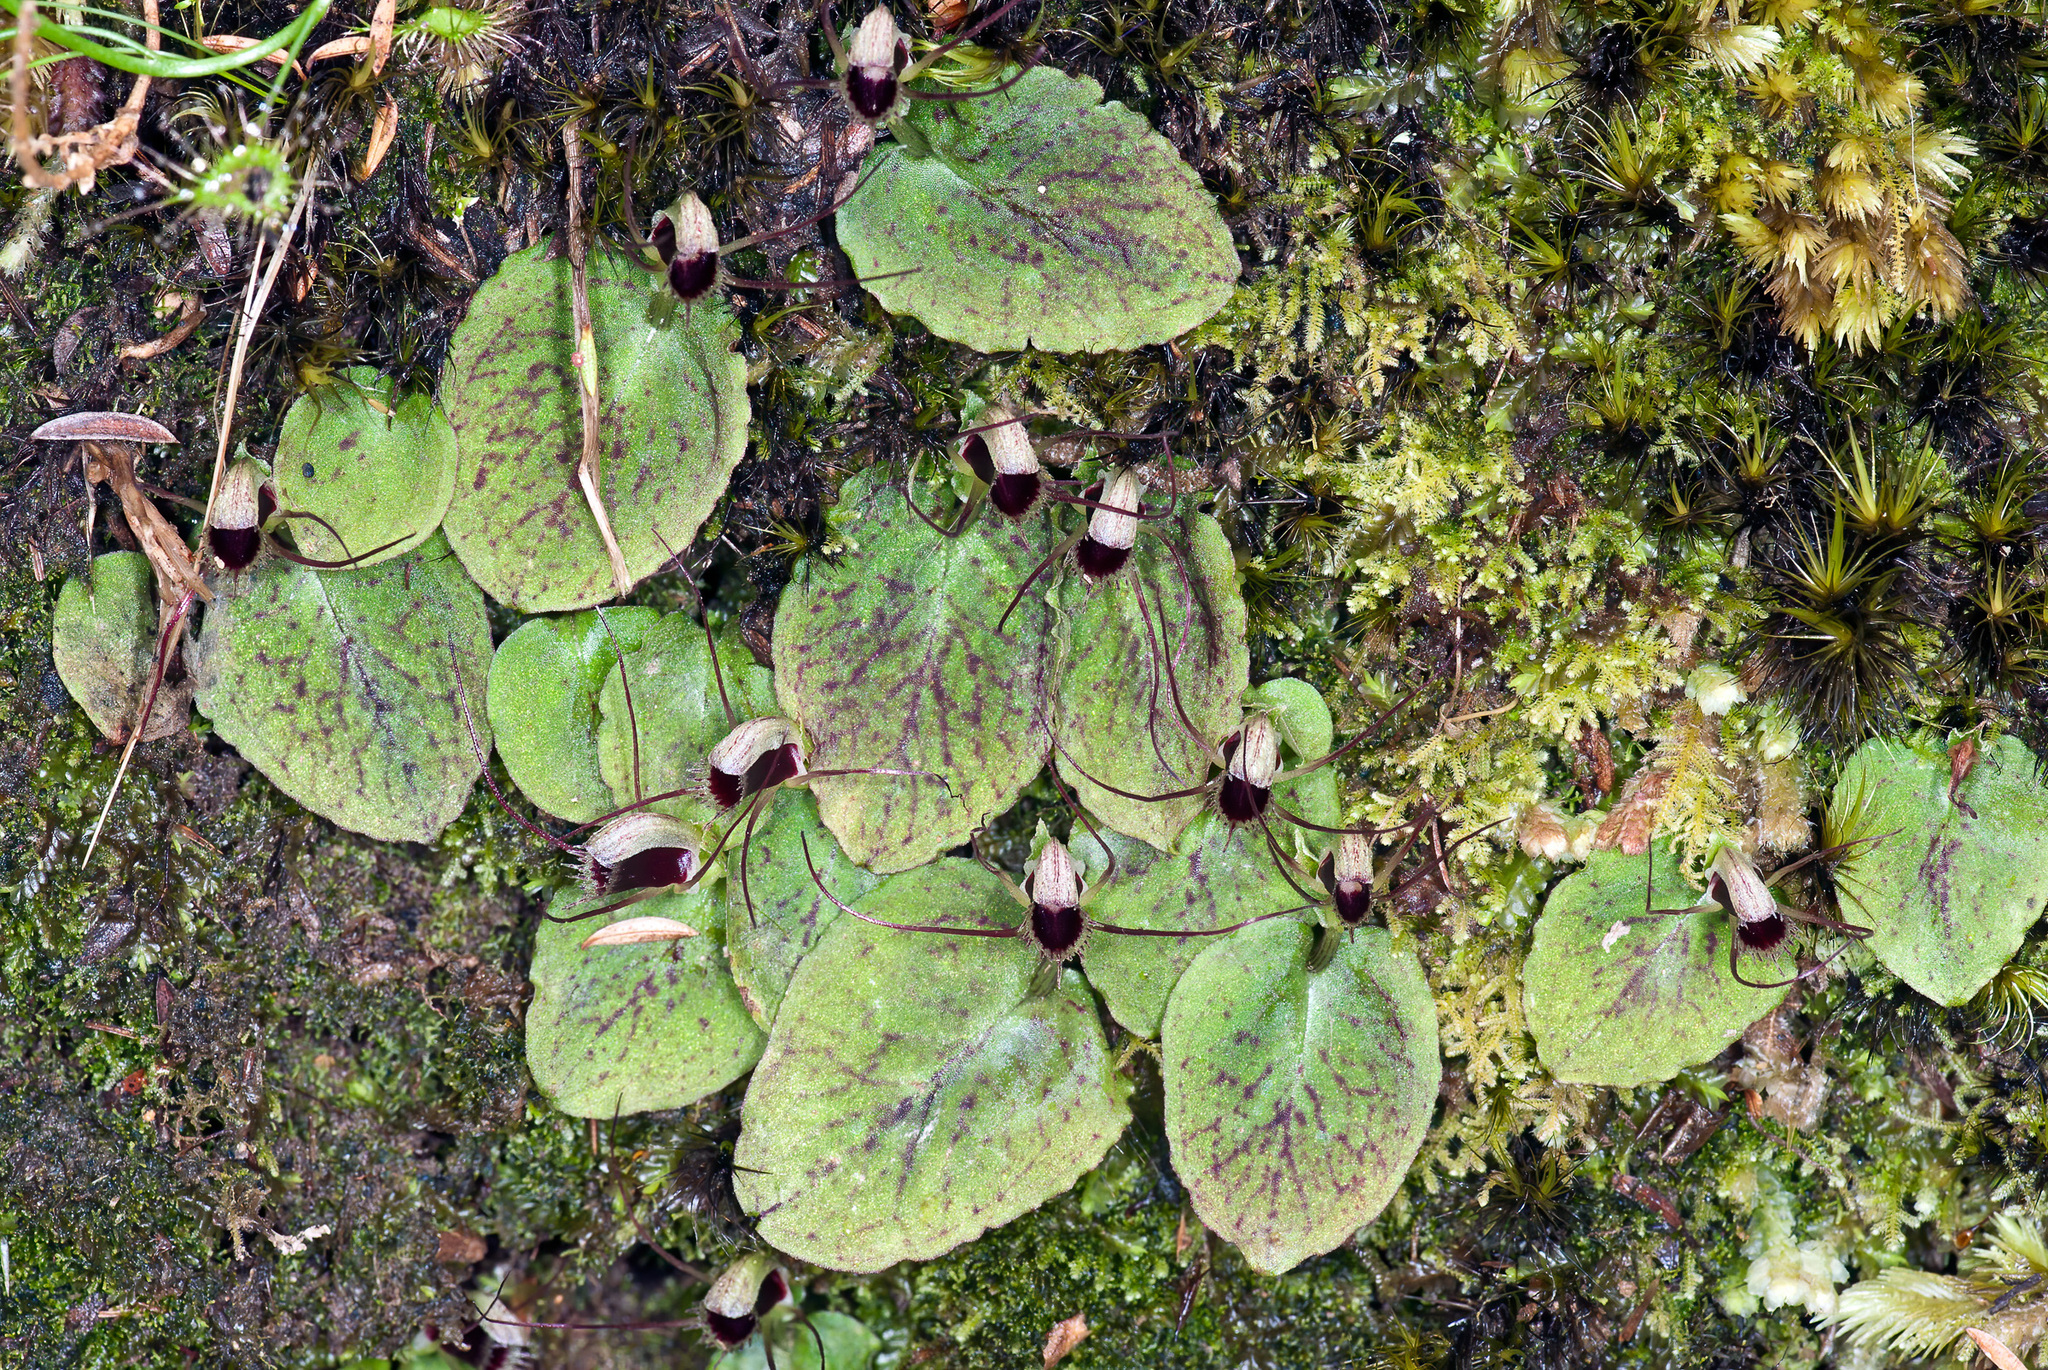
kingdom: Plantae
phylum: Tracheophyta
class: Liliopsida
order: Asparagales
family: Orchidaceae
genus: Corybas
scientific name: Corybas oblongus
